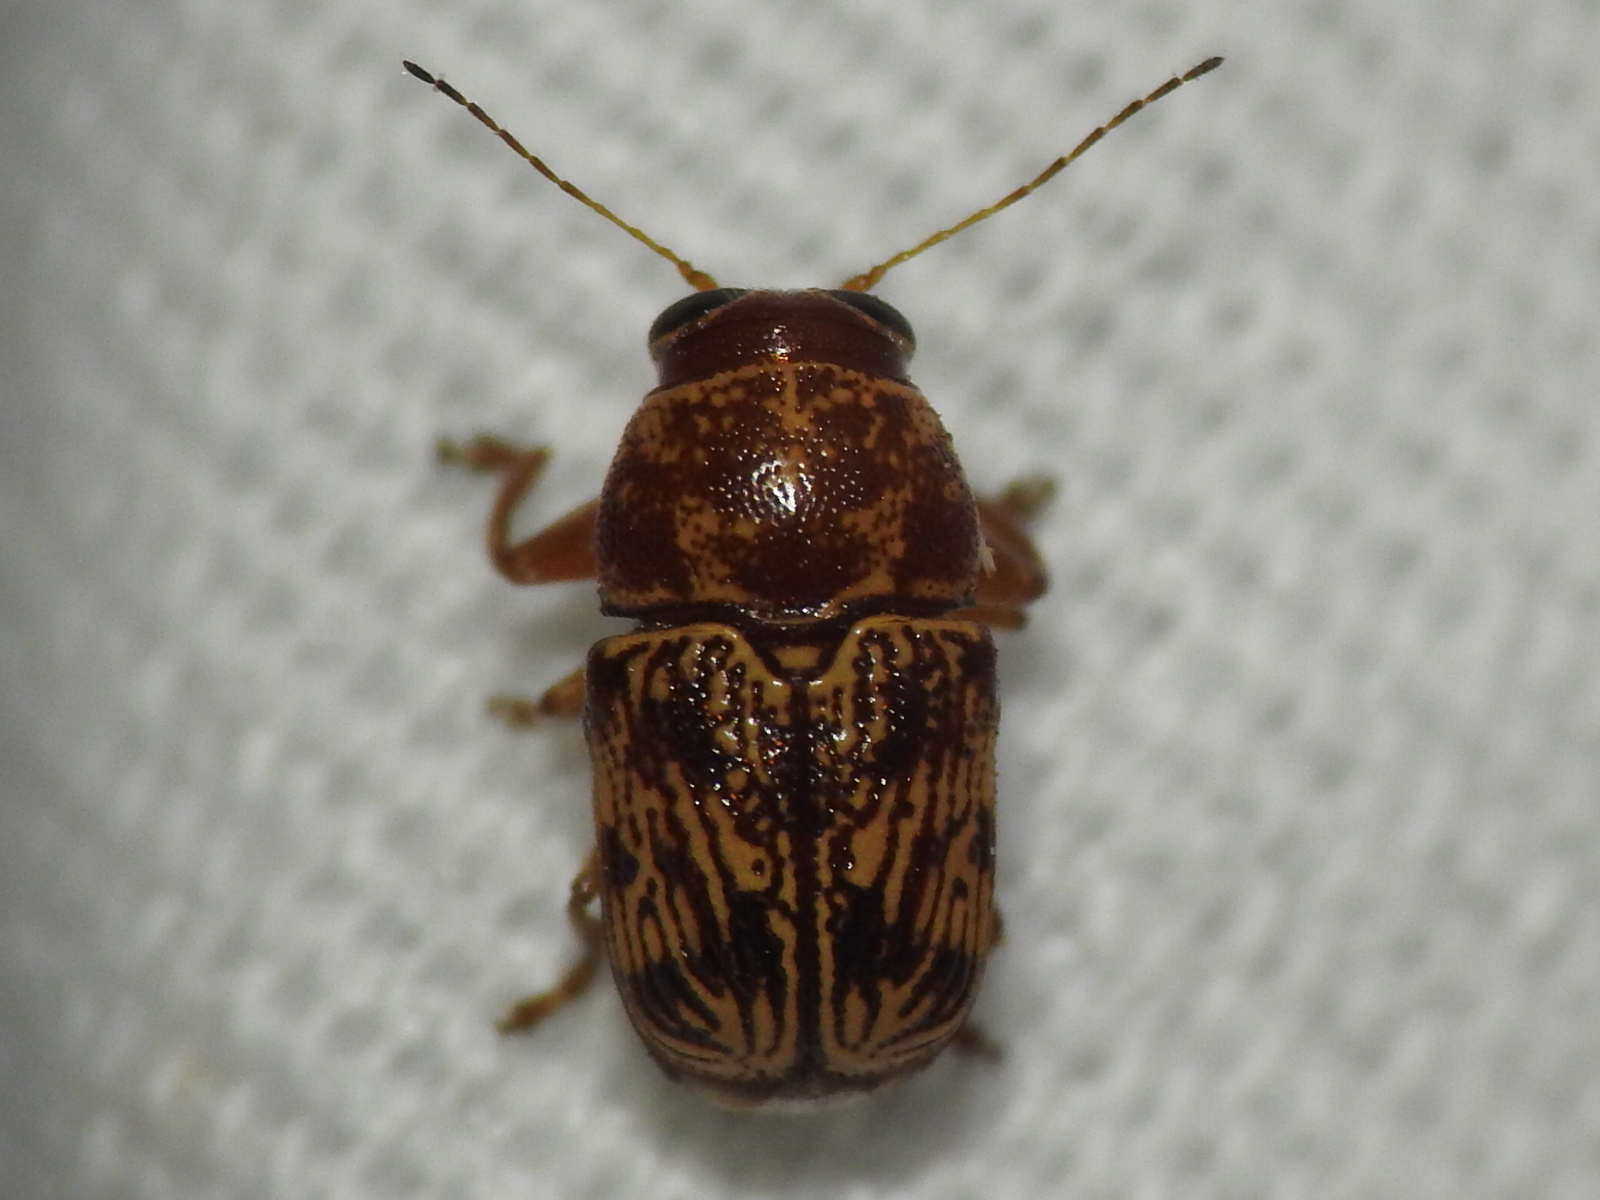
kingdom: Animalia
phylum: Arthropoda
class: Insecta
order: Coleoptera
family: Chrysomelidae
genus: Pachybrachis
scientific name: Pachybrachis
